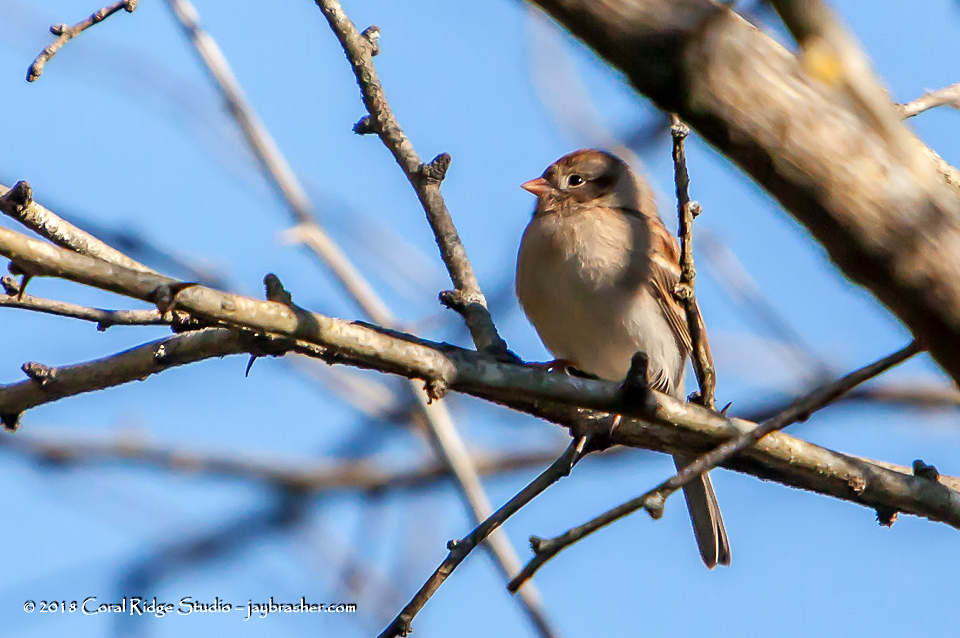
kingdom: Animalia
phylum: Chordata
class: Aves
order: Passeriformes
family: Passerellidae
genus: Spizella
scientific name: Spizella pusilla
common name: Field sparrow
